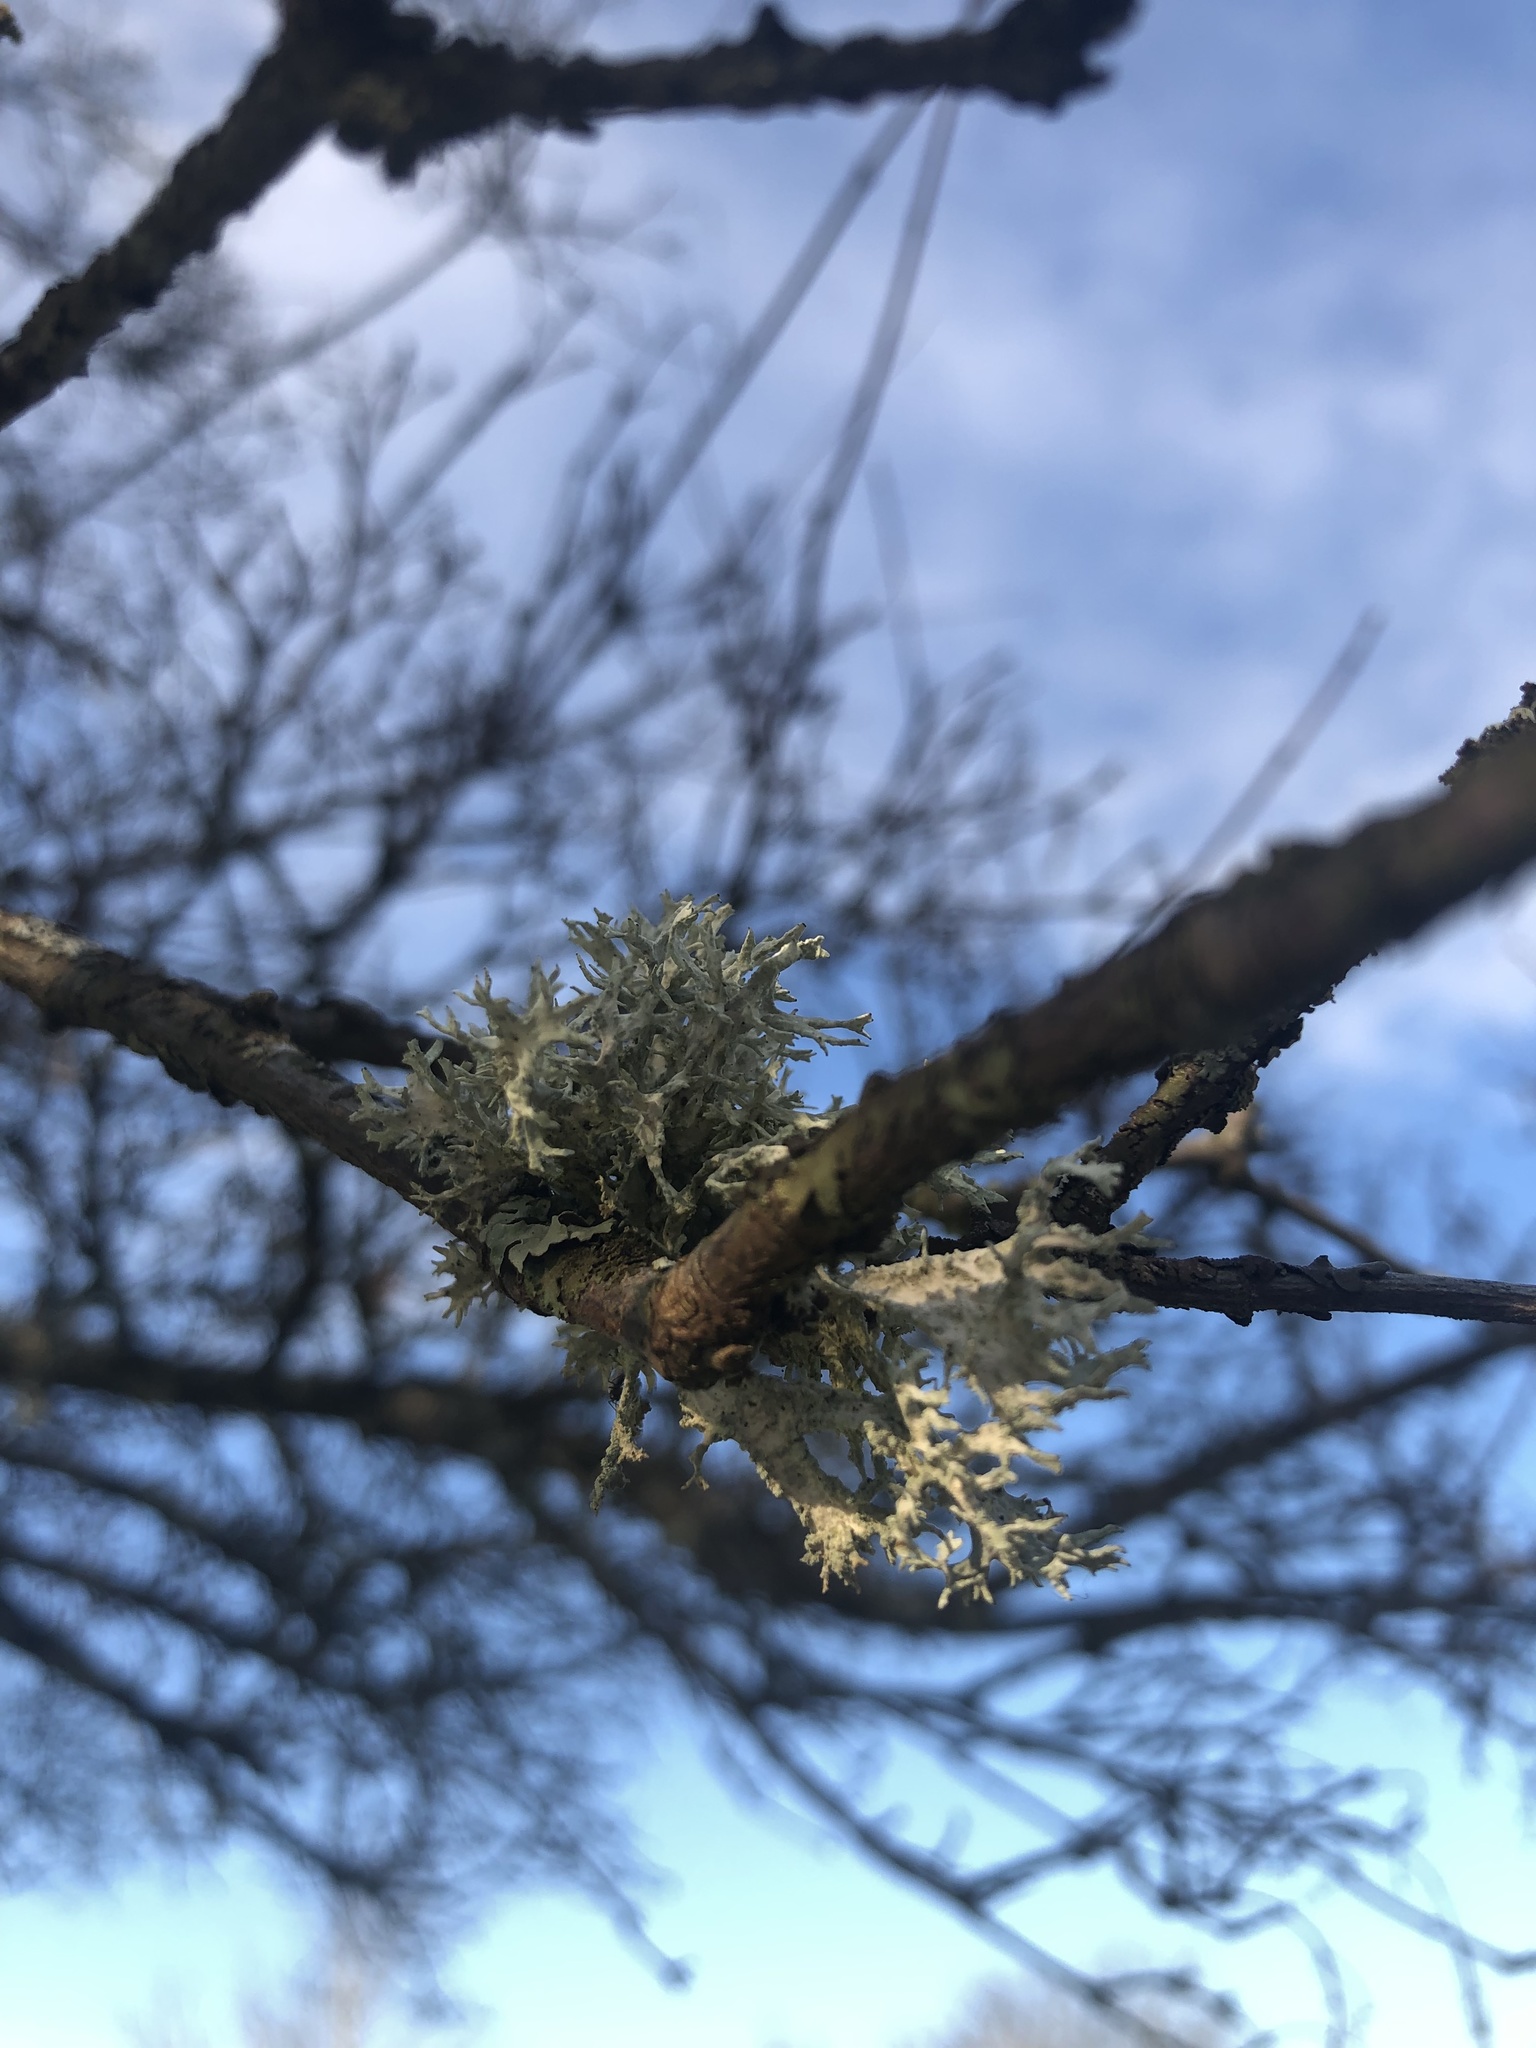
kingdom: Fungi
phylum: Ascomycota
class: Lecanoromycetes
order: Lecanorales
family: Parmeliaceae
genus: Evernia
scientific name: Evernia prunastri
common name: Oak moss
